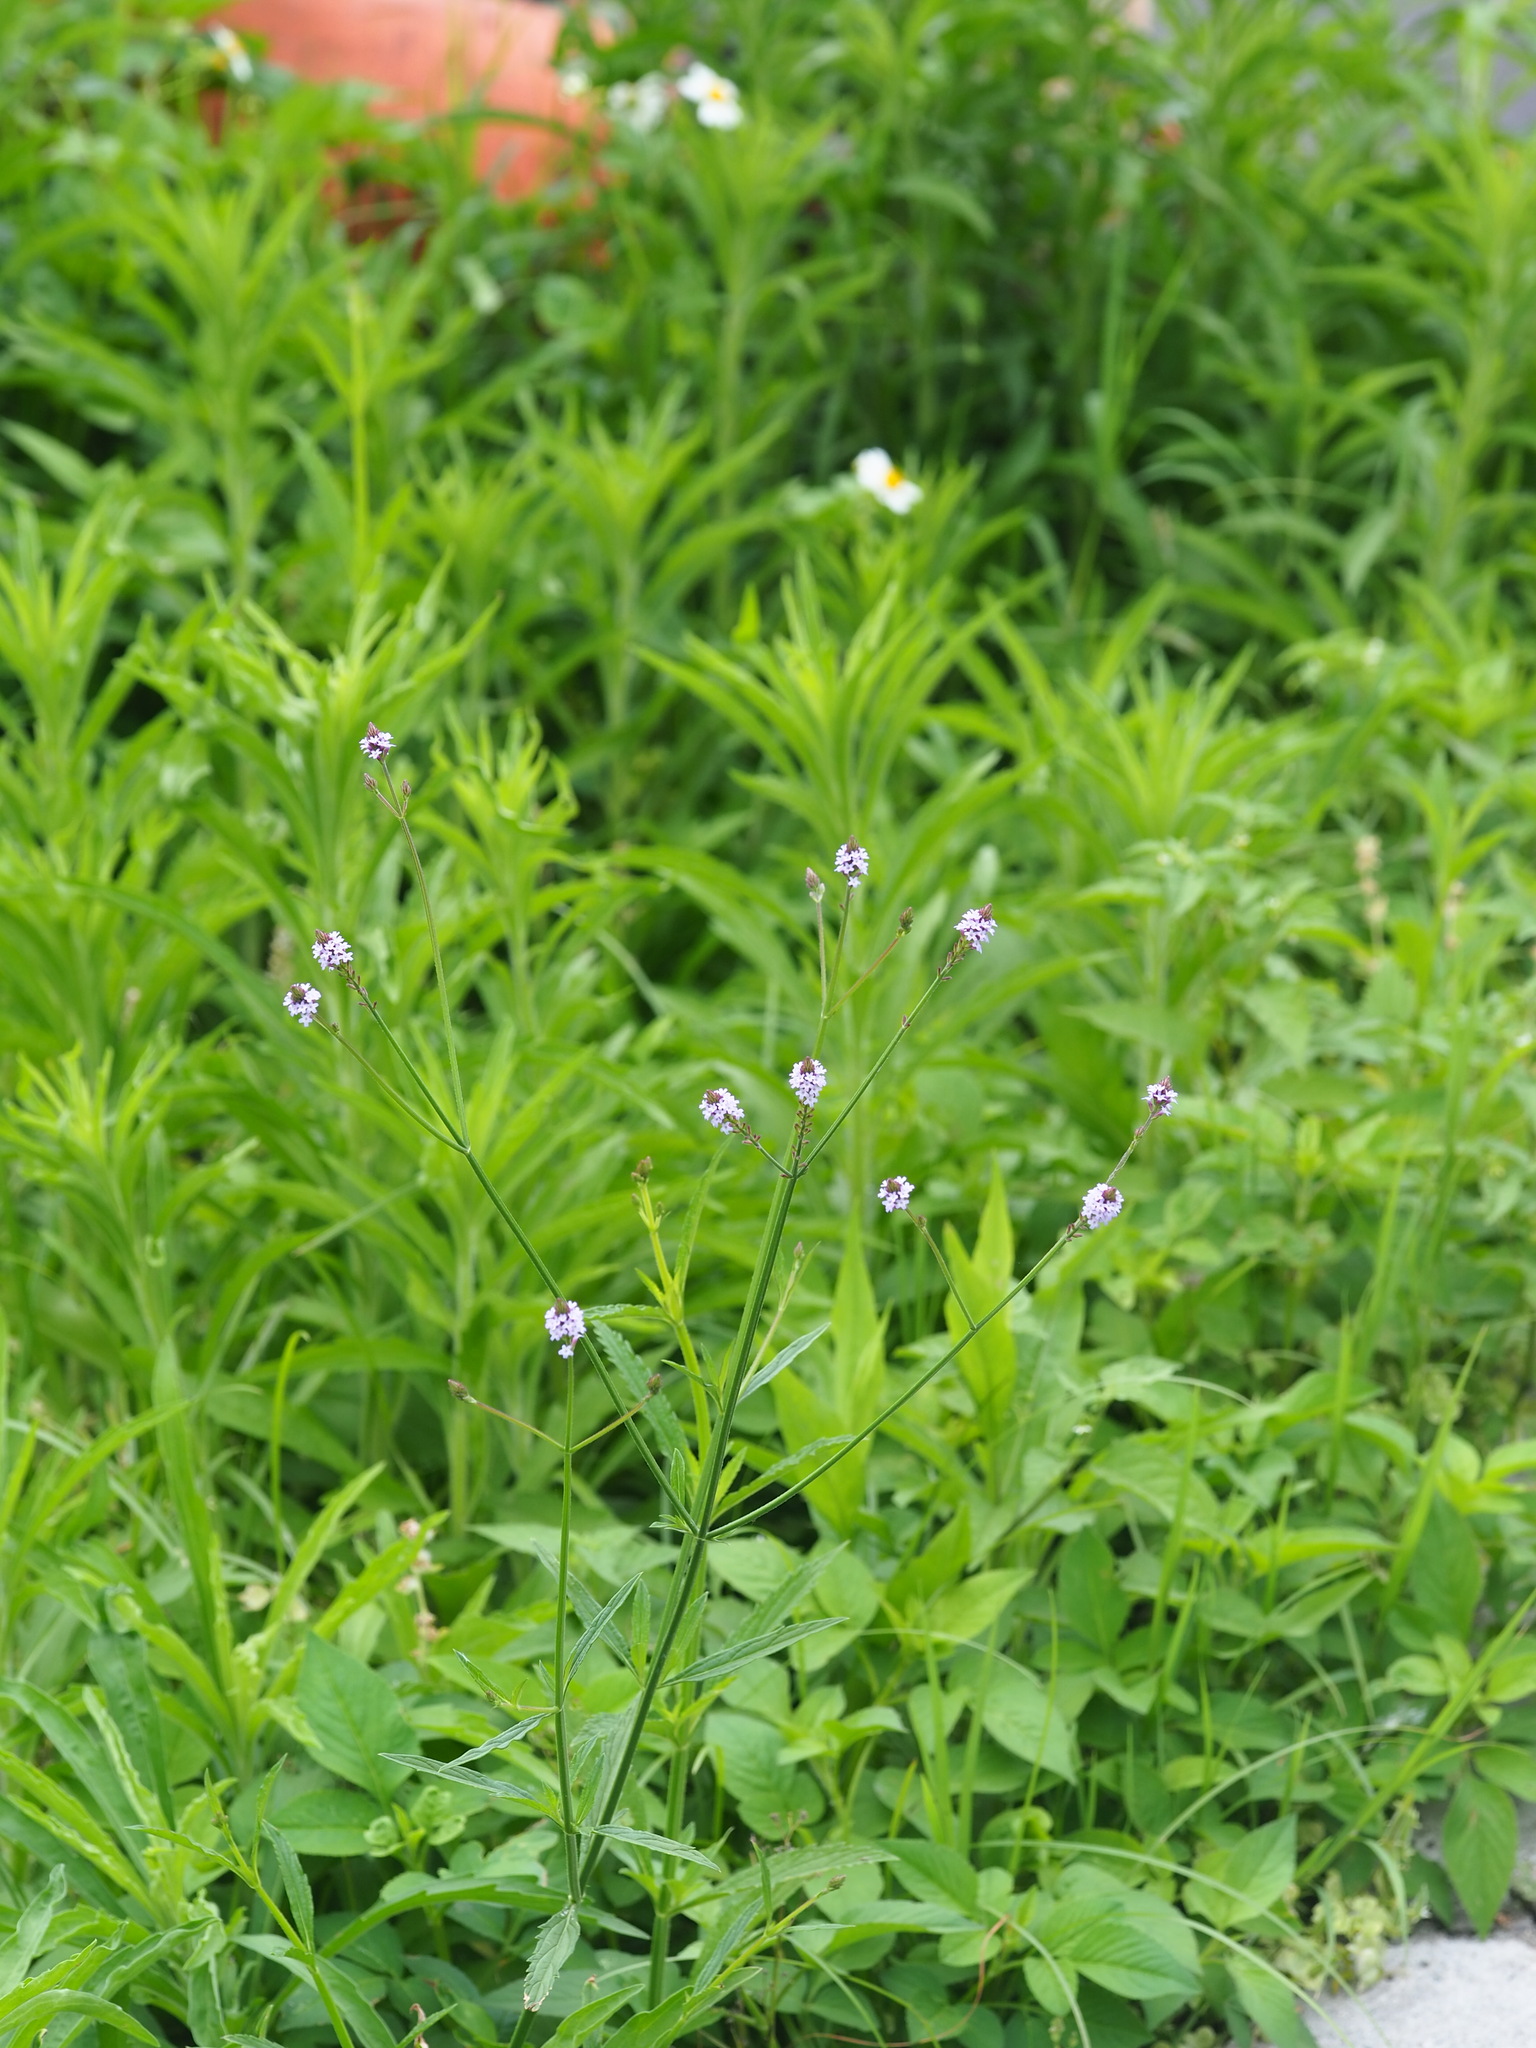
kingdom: Plantae
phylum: Tracheophyta
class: Magnoliopsida
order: Lamiales
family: Verbenaceae
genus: Verbena
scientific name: Verbena litoralis
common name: Seashore vervain
